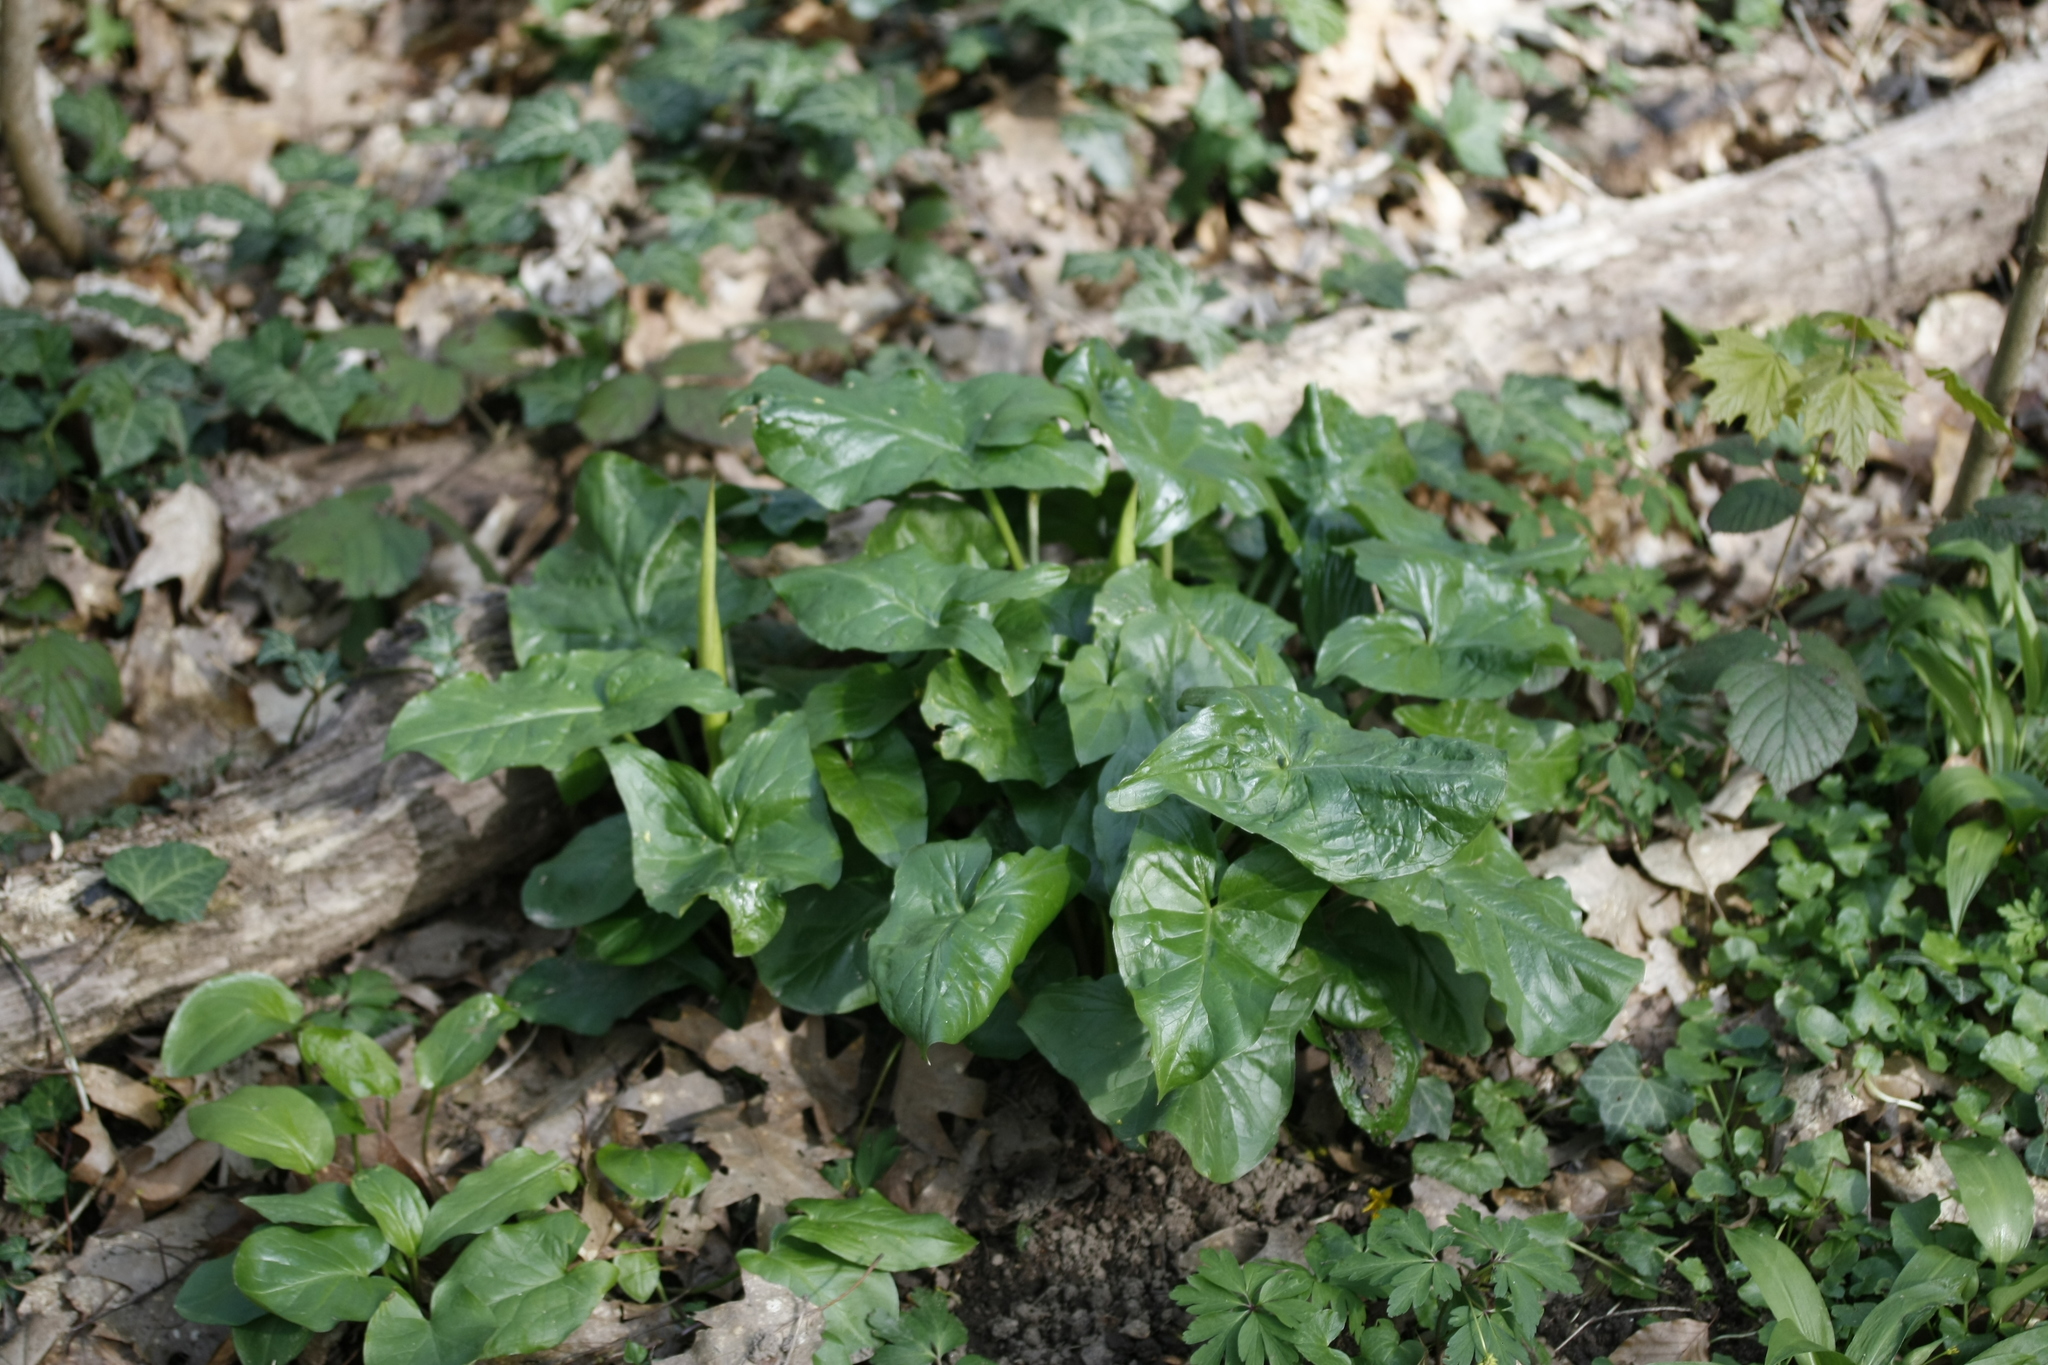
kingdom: Plantae
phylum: Tracheophyta
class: Liliopsida
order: Alismatales
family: Araceae
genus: Arum
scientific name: Arum maculatum
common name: Lords-and-ladies
